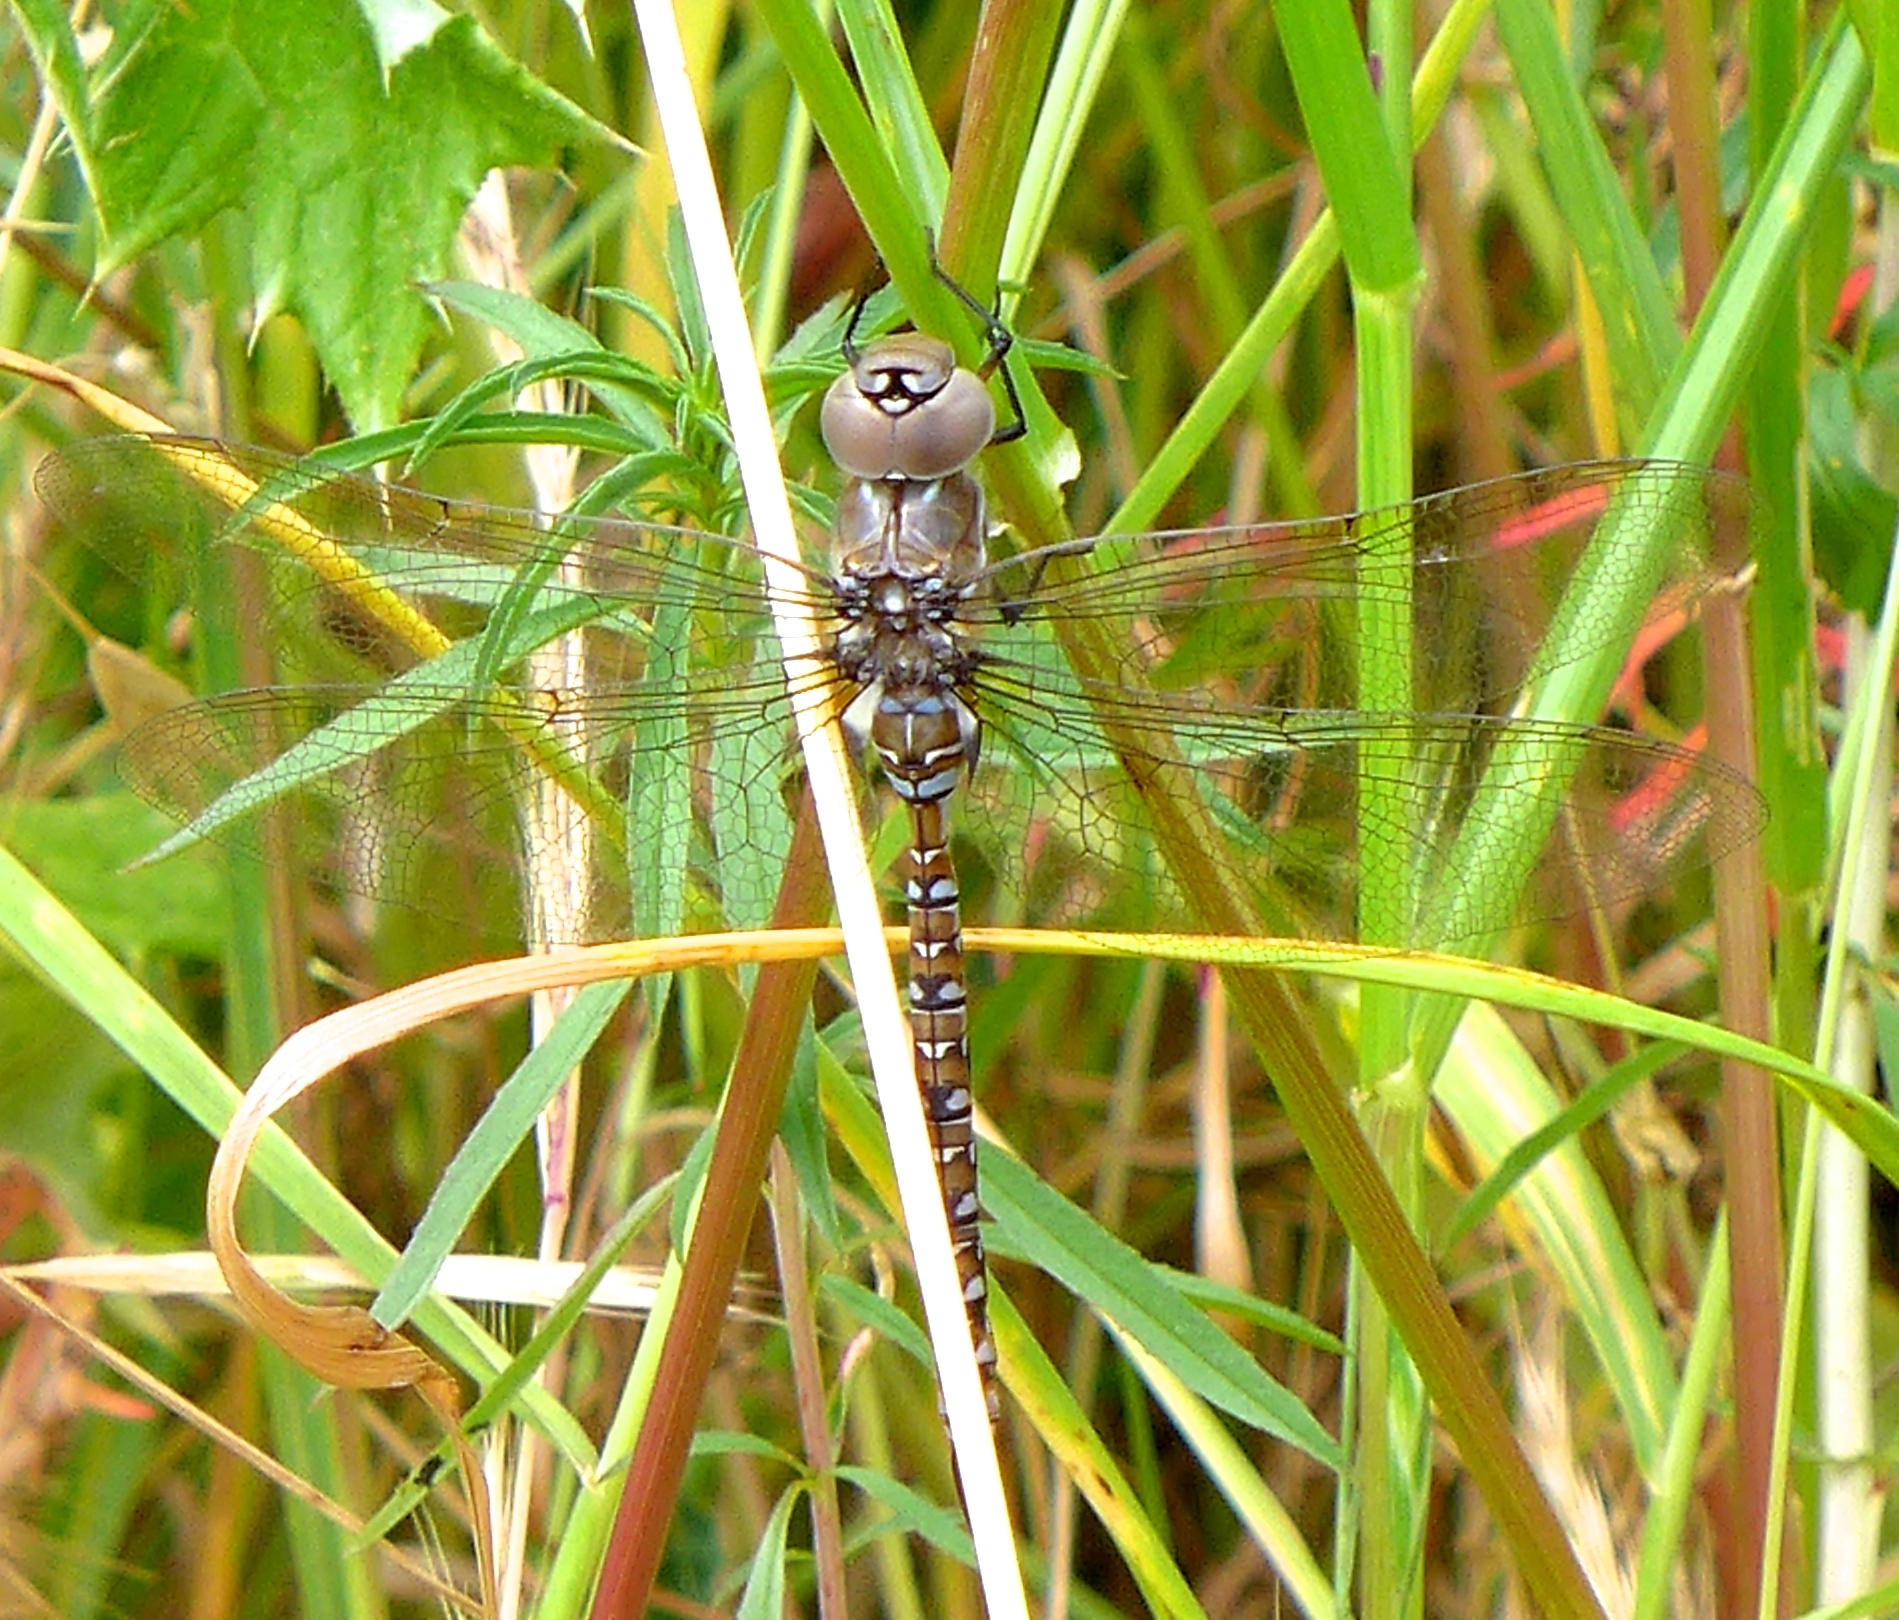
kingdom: Animalia
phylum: Arthropoda
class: Insecta
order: Odonata
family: Aeshnidae
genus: Rhionaeschna
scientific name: Rhionaeschna multicolor
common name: Blue-eyed darner
